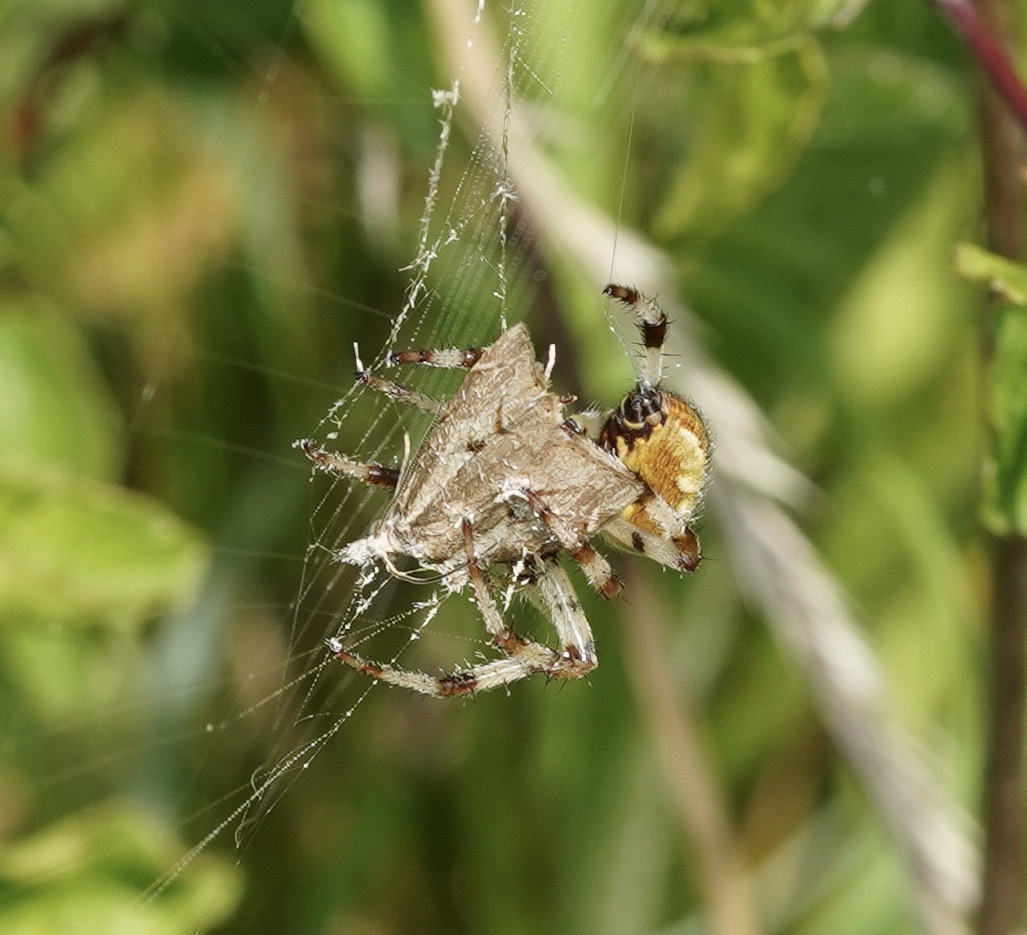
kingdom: Animalia
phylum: Arthropoda
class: Arachnida
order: Araneae
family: Araneidae
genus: Araneus
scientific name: Araneus quadratus
